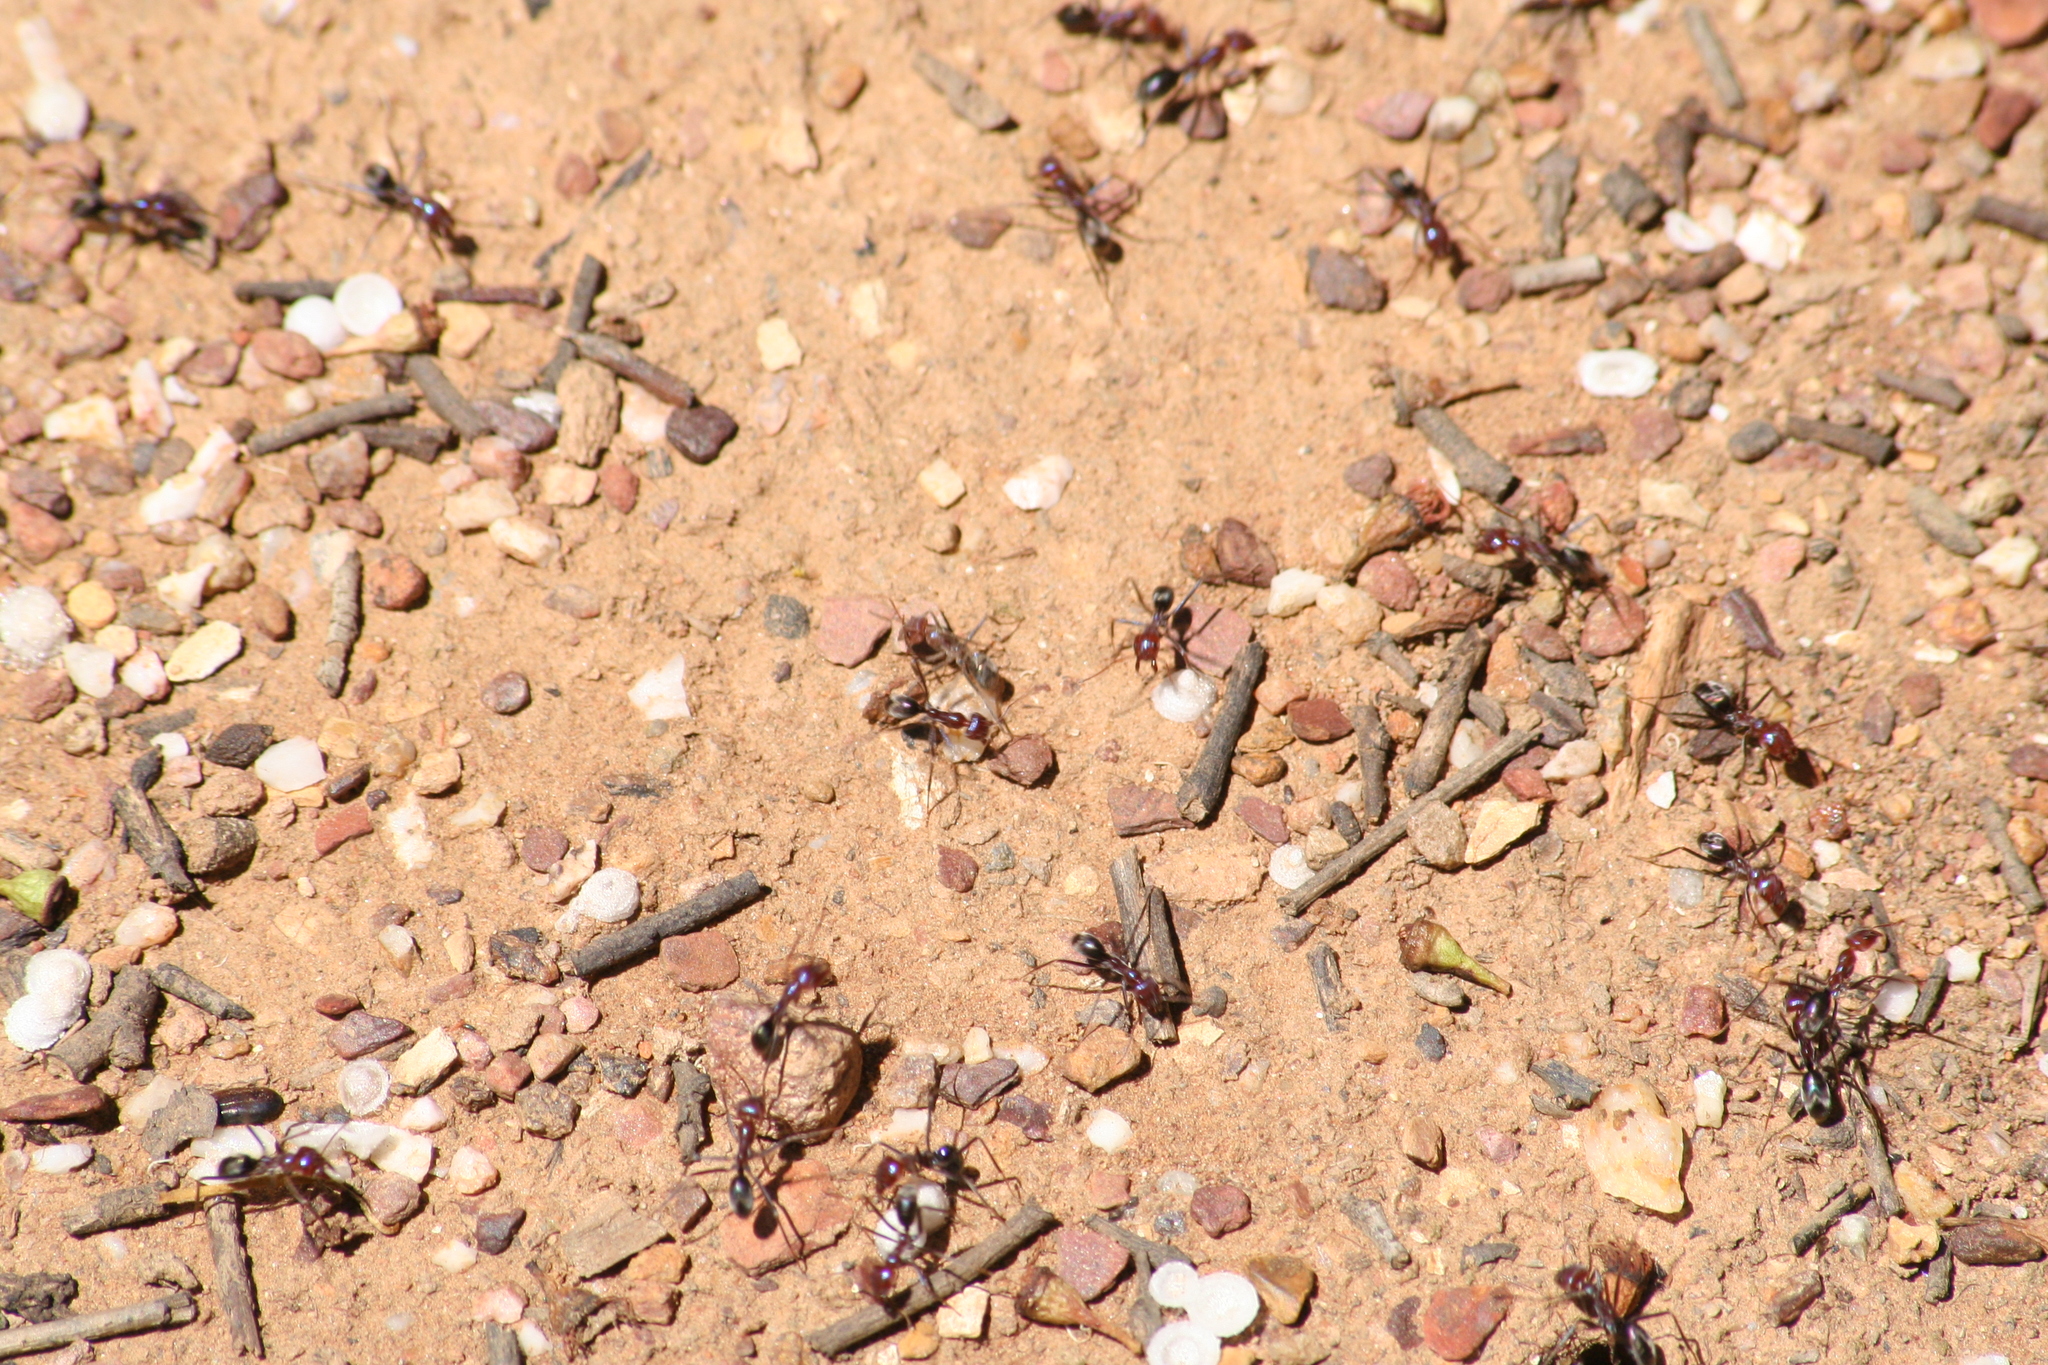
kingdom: Animalia
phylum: Arthropoda
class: Insecta
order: Hymenoptera
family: Formicidae
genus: Iridomyrmex
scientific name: Iridomyrmex purpureus
